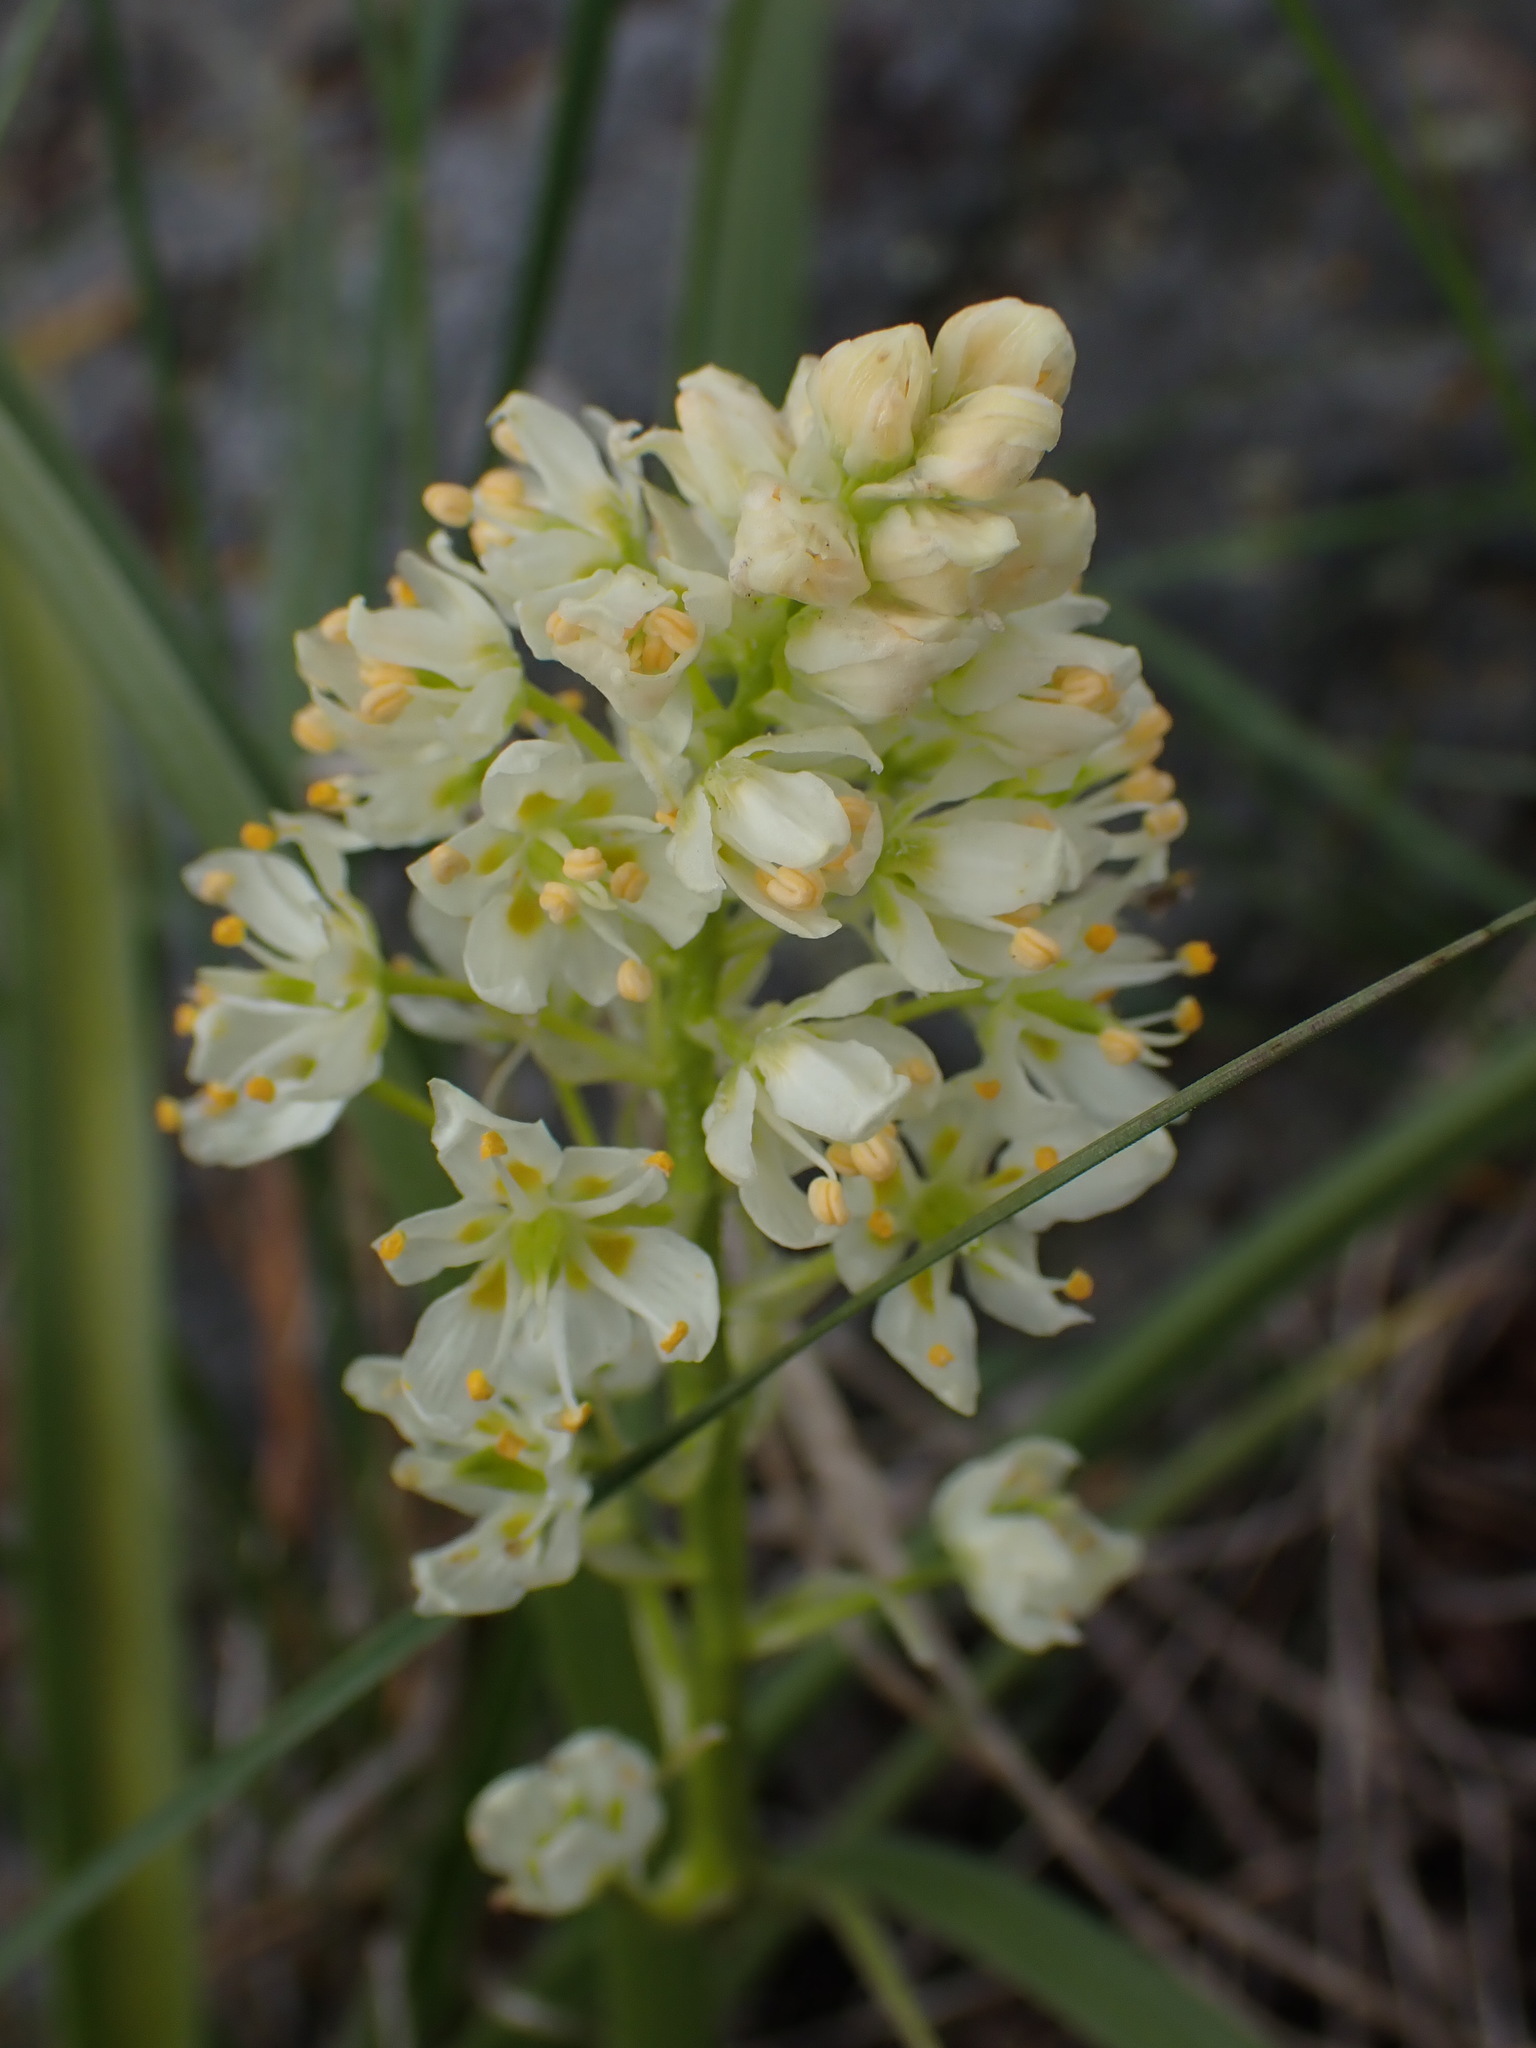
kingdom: Plantae
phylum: Tracheophyta
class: Liliopsida
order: Liliales
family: Melanthiaceae
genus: Toxicoscordion
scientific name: Toxicoscordion venenosum
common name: Meadow death camas
